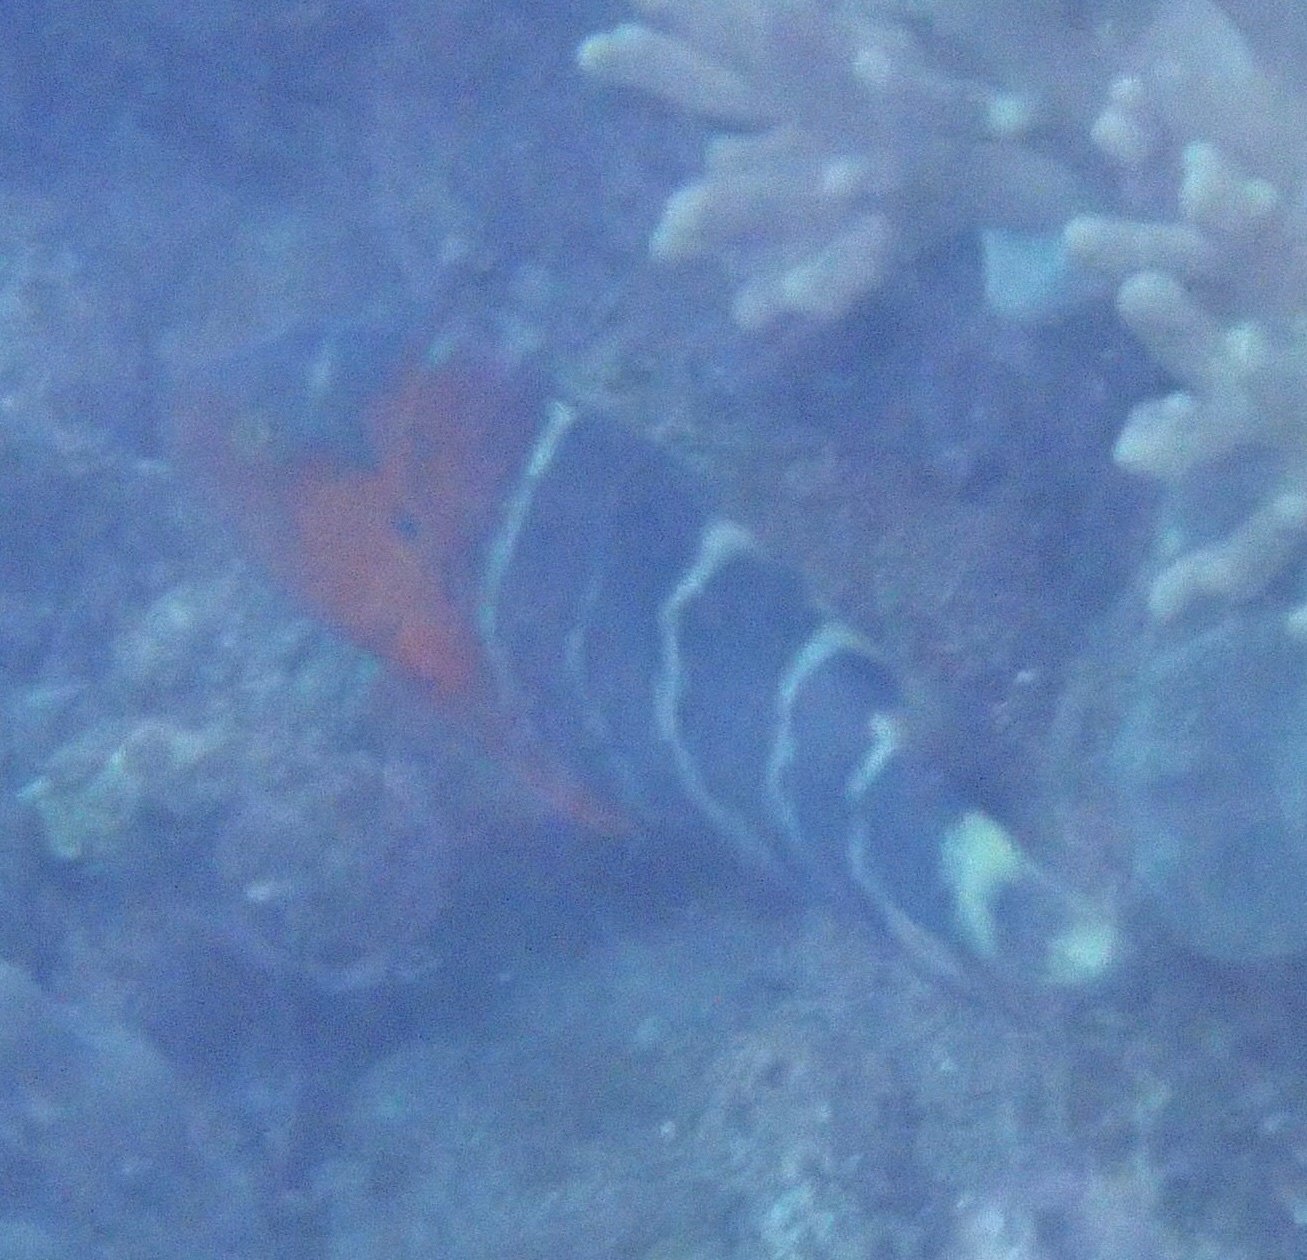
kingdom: Animalia
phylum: Chordata
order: Perciformes
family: Labridae
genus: Cheilinus
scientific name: Cheilinus fasciatus
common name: Red-breasted wrasse
